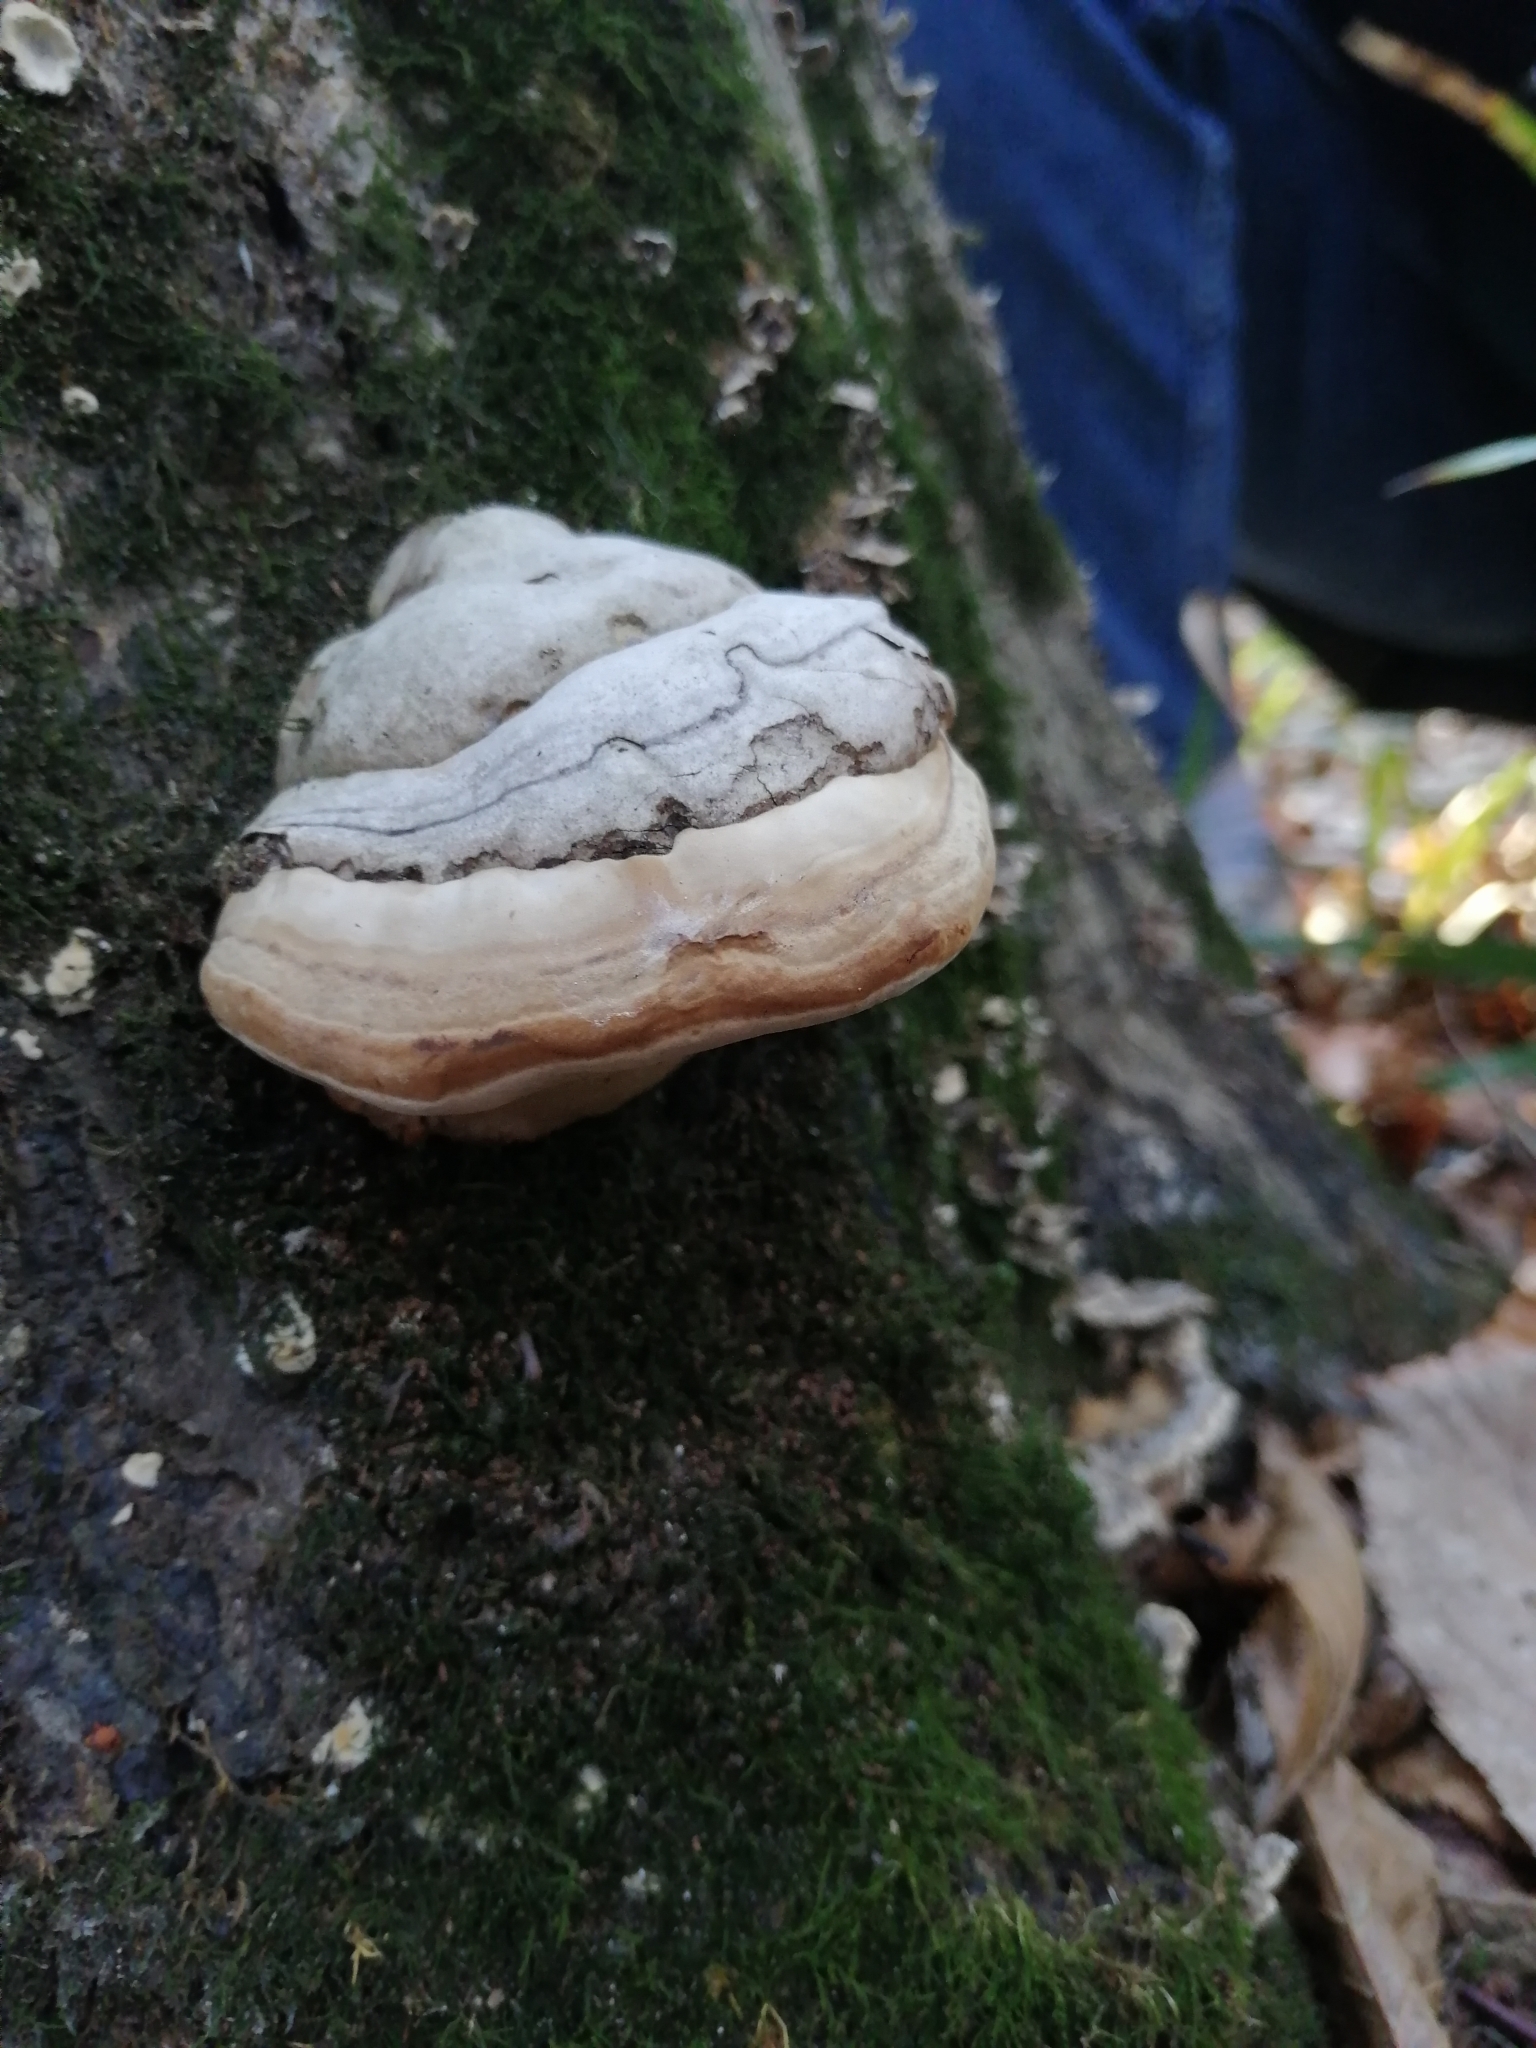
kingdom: Fungi
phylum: Basidiomycota
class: Agaricomycetes
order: Polyporales
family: Polyporaceae
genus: Fomes
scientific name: Fomes fomentarius
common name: Hoof fungus
